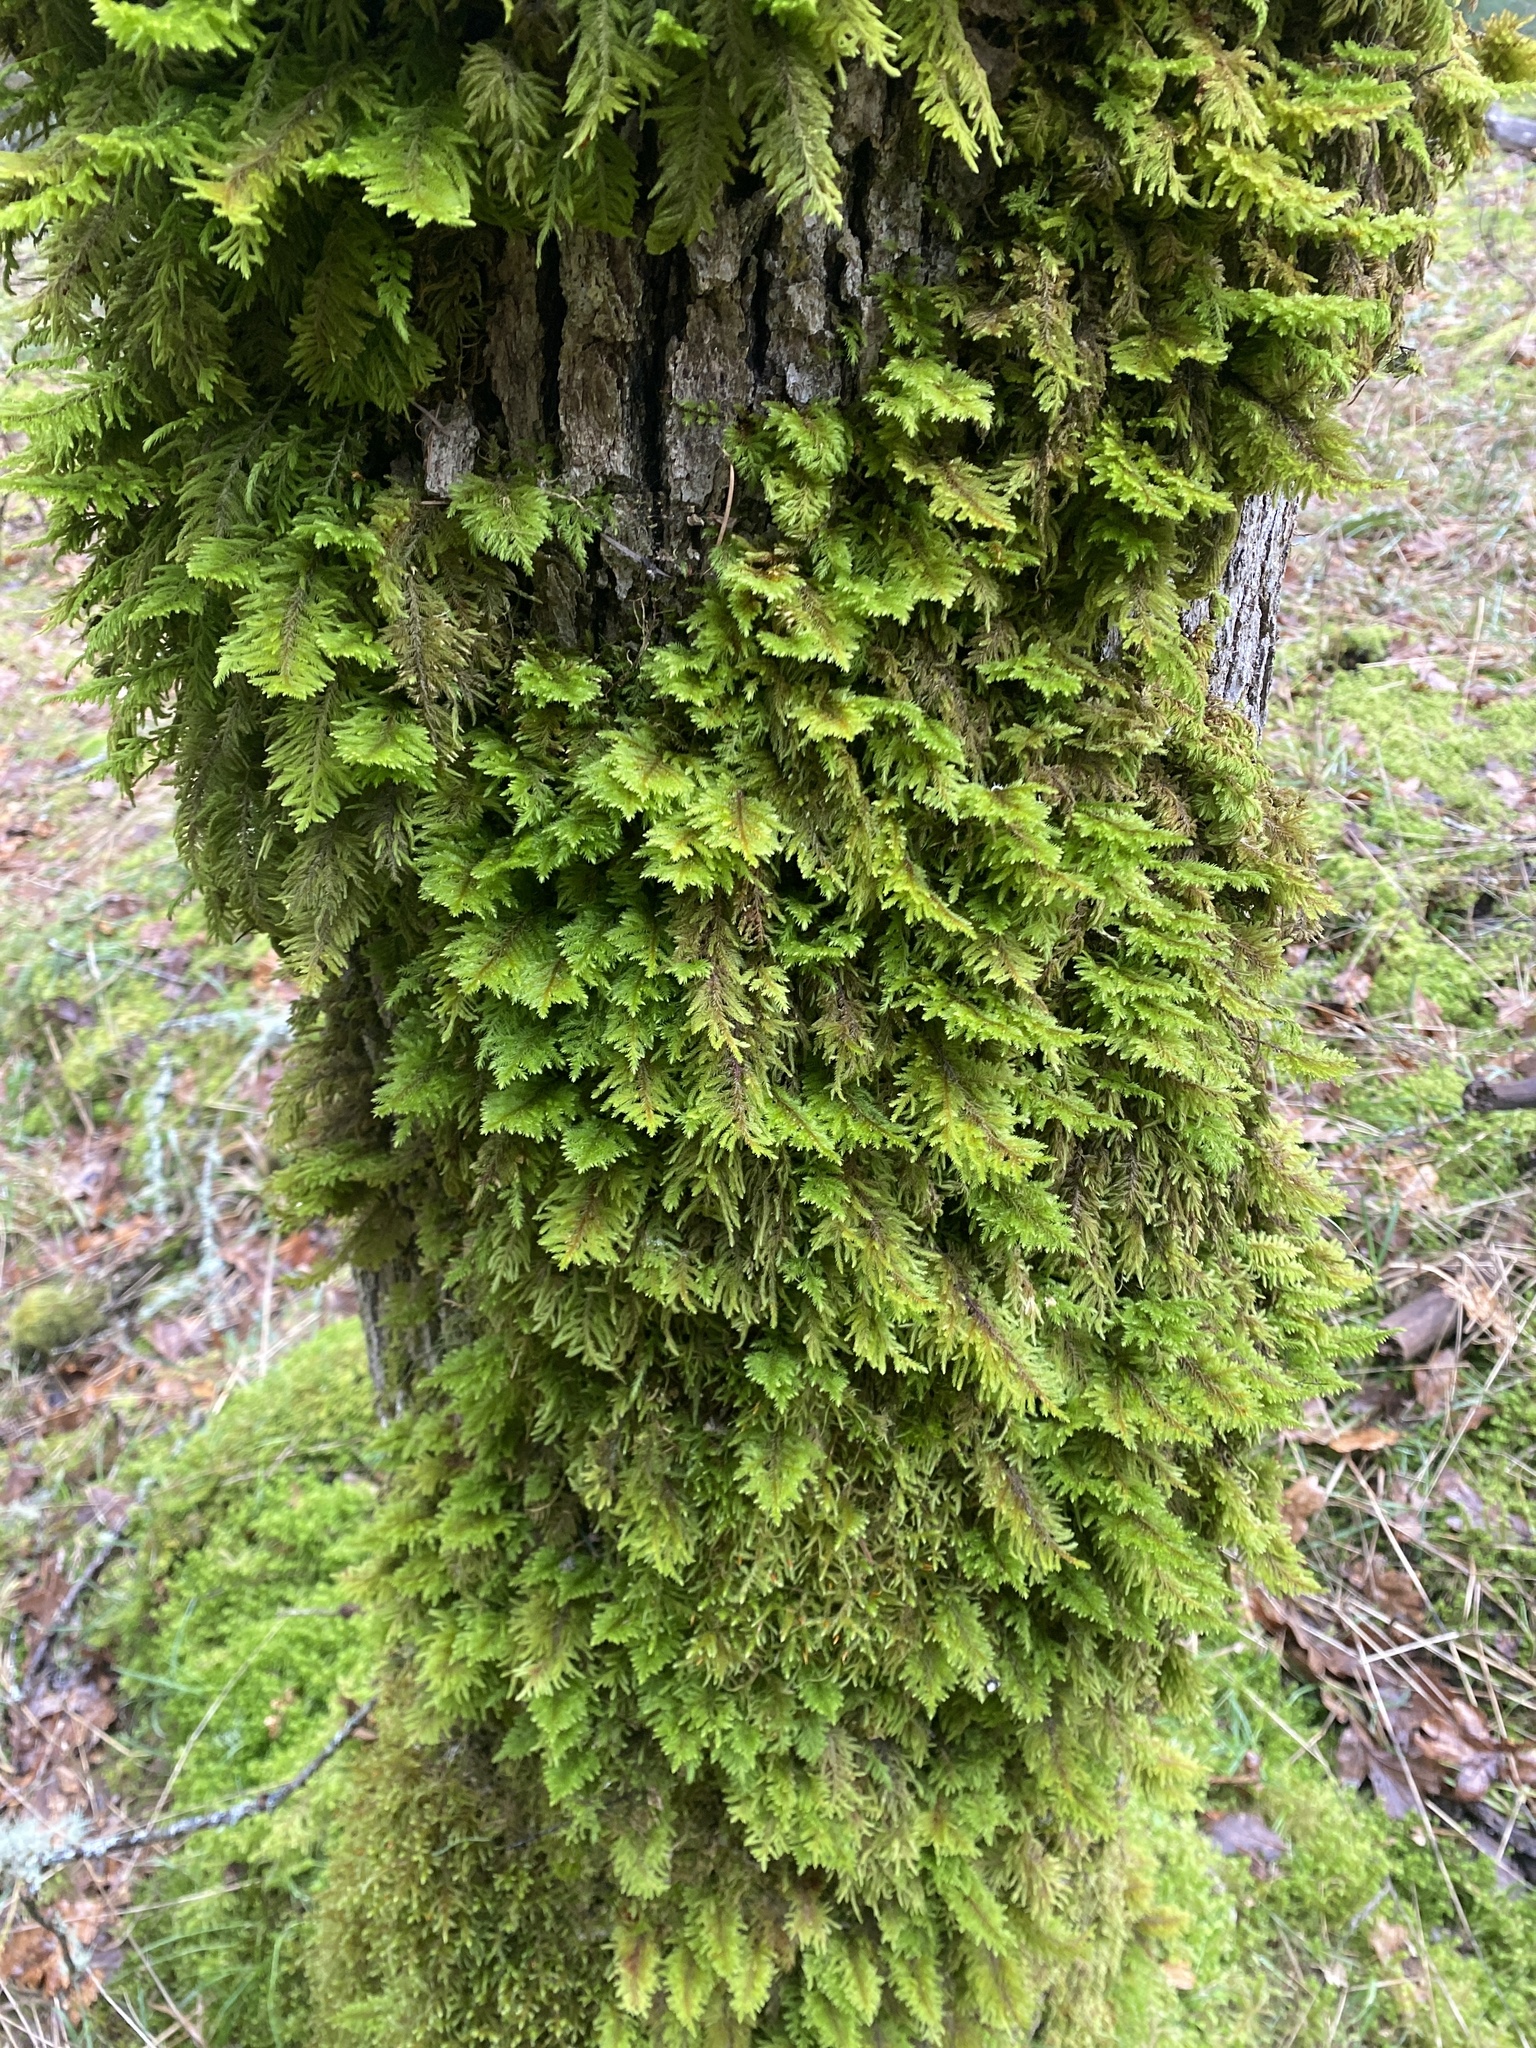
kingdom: Plantae
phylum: Bryophyta
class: Bryopsida
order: Hypnales
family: Cryphaeaceae
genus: Dendroalsia
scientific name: Dendroalsia abietina
